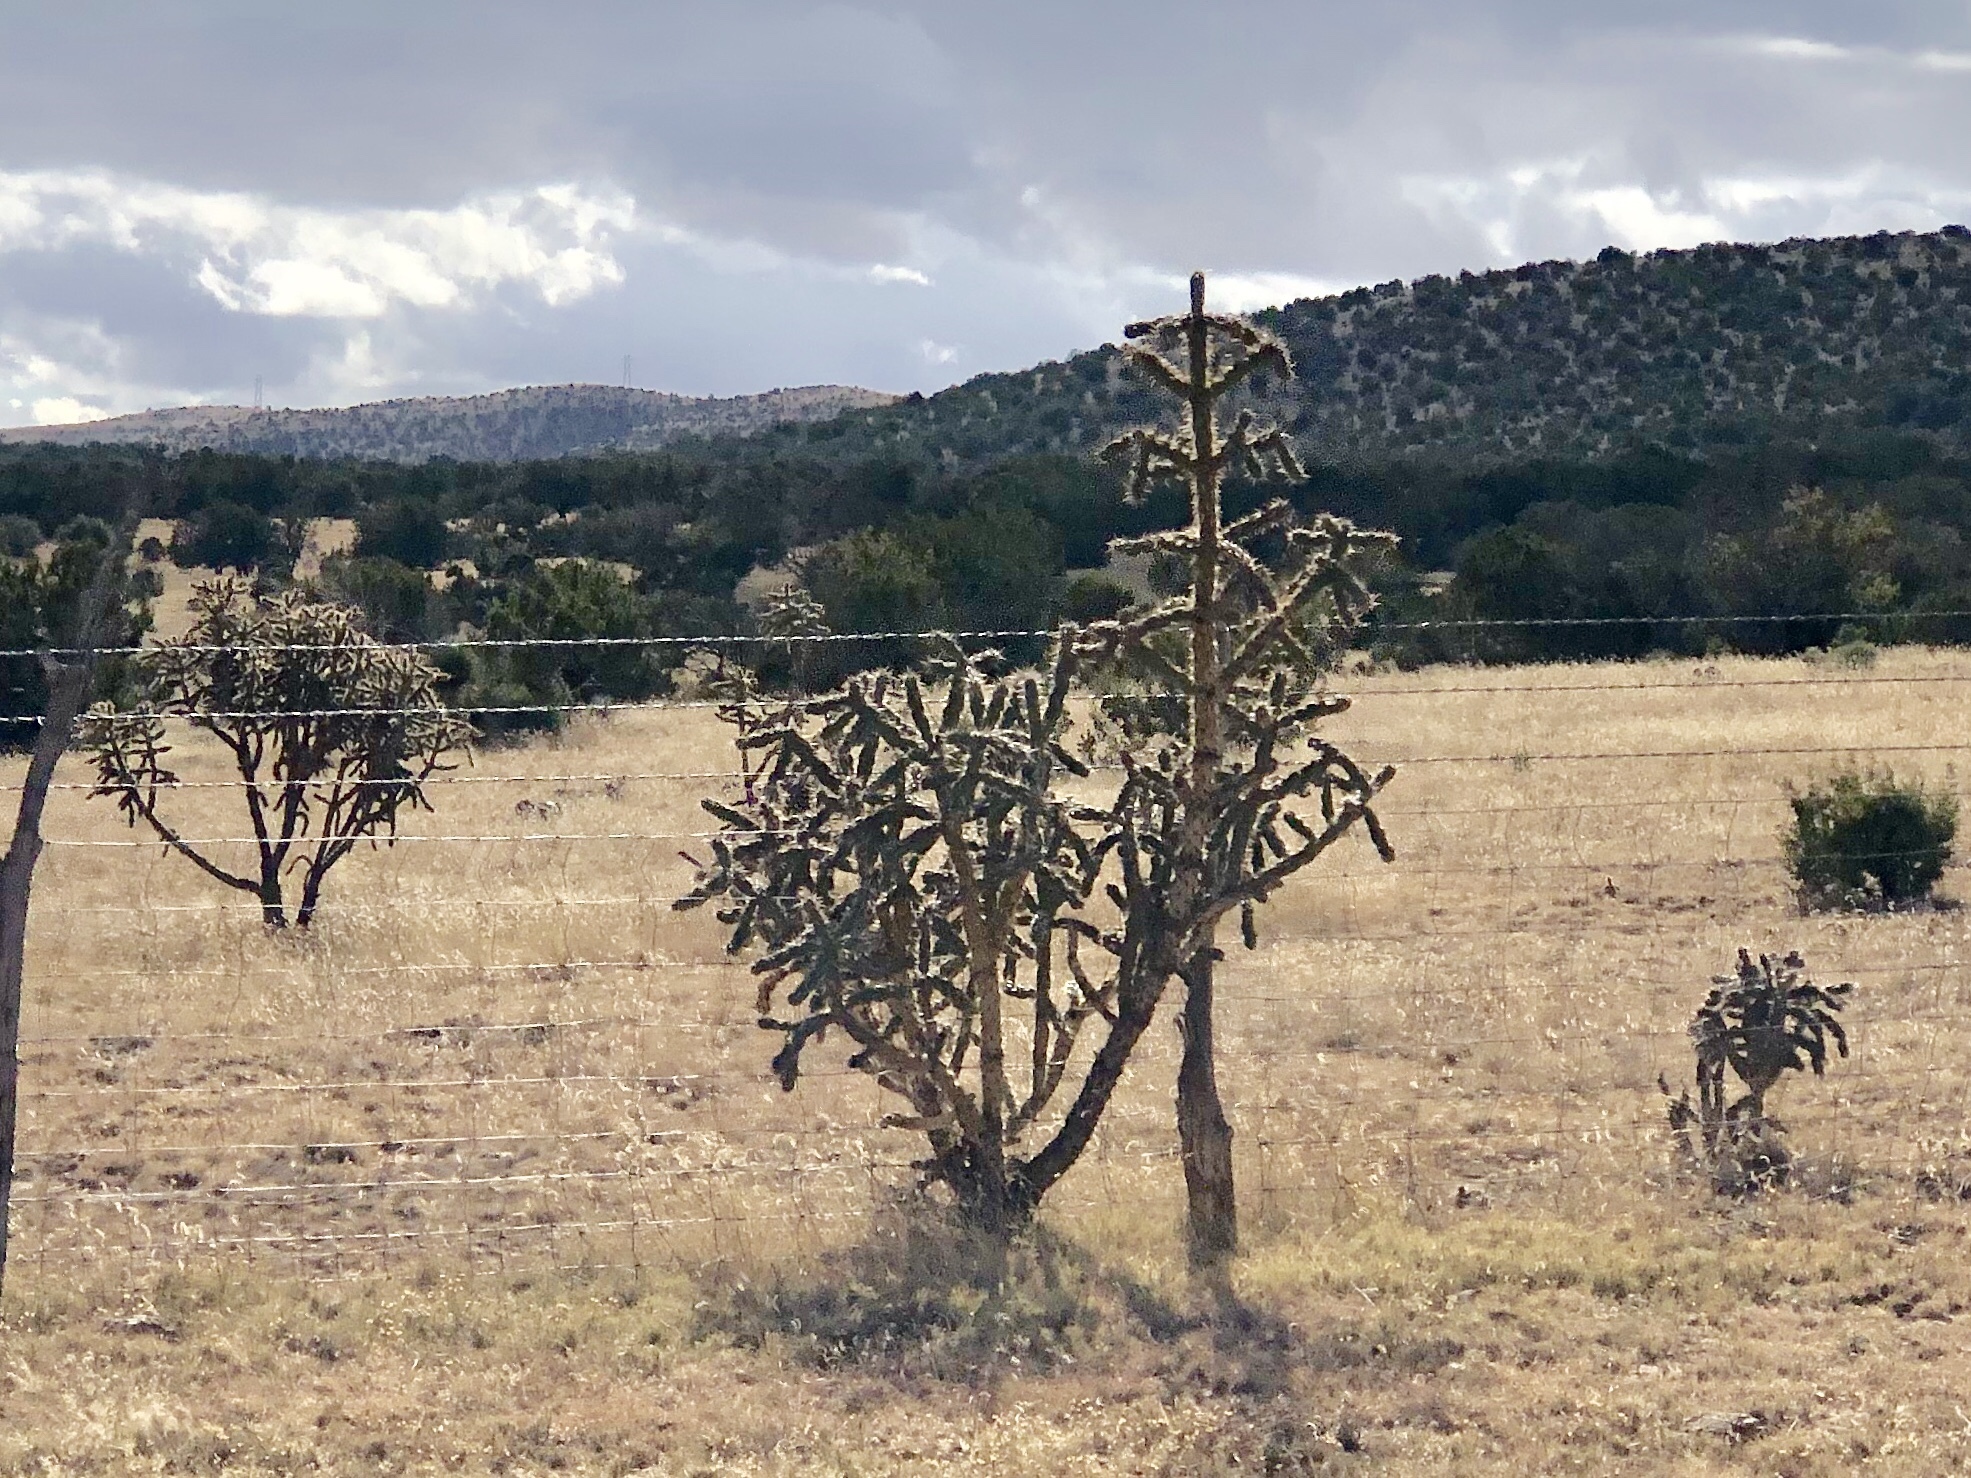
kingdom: Plantae
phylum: Tracheophyta
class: Magnoliopsida
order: Caryophyllales
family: Cactaceae
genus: Cylindropuntia
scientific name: Cylindropuntia imbricata
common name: Candelabrum cactus
